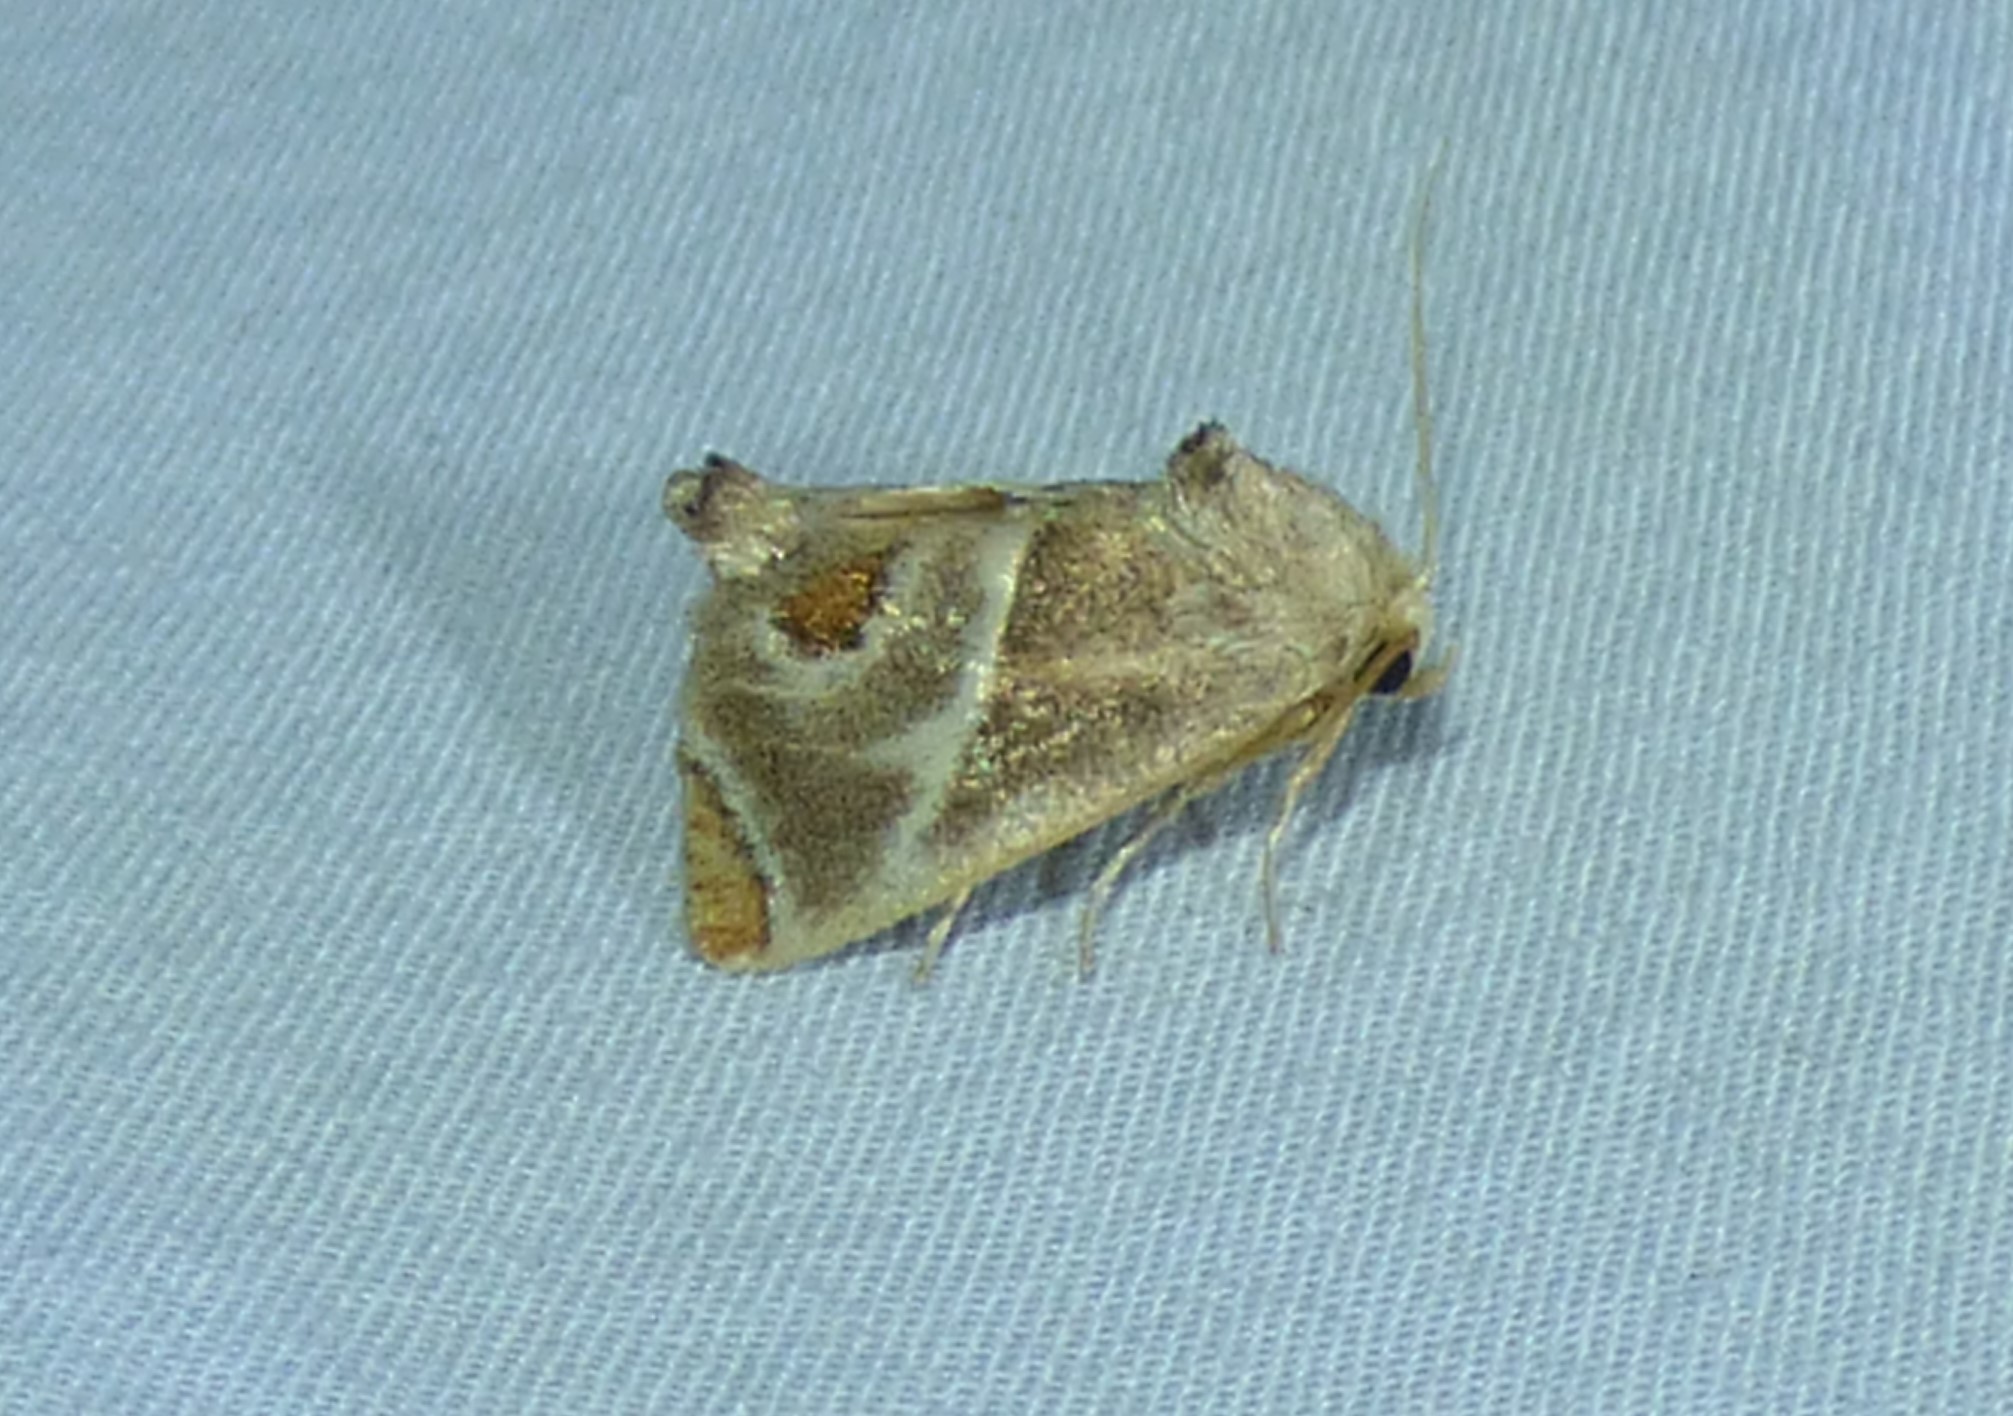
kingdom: Animalia
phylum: Arthropoda
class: Insecta
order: Lepidoptera
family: Limacodidae
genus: Apoda
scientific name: Apoda biguttata
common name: Shagreened slug moth
